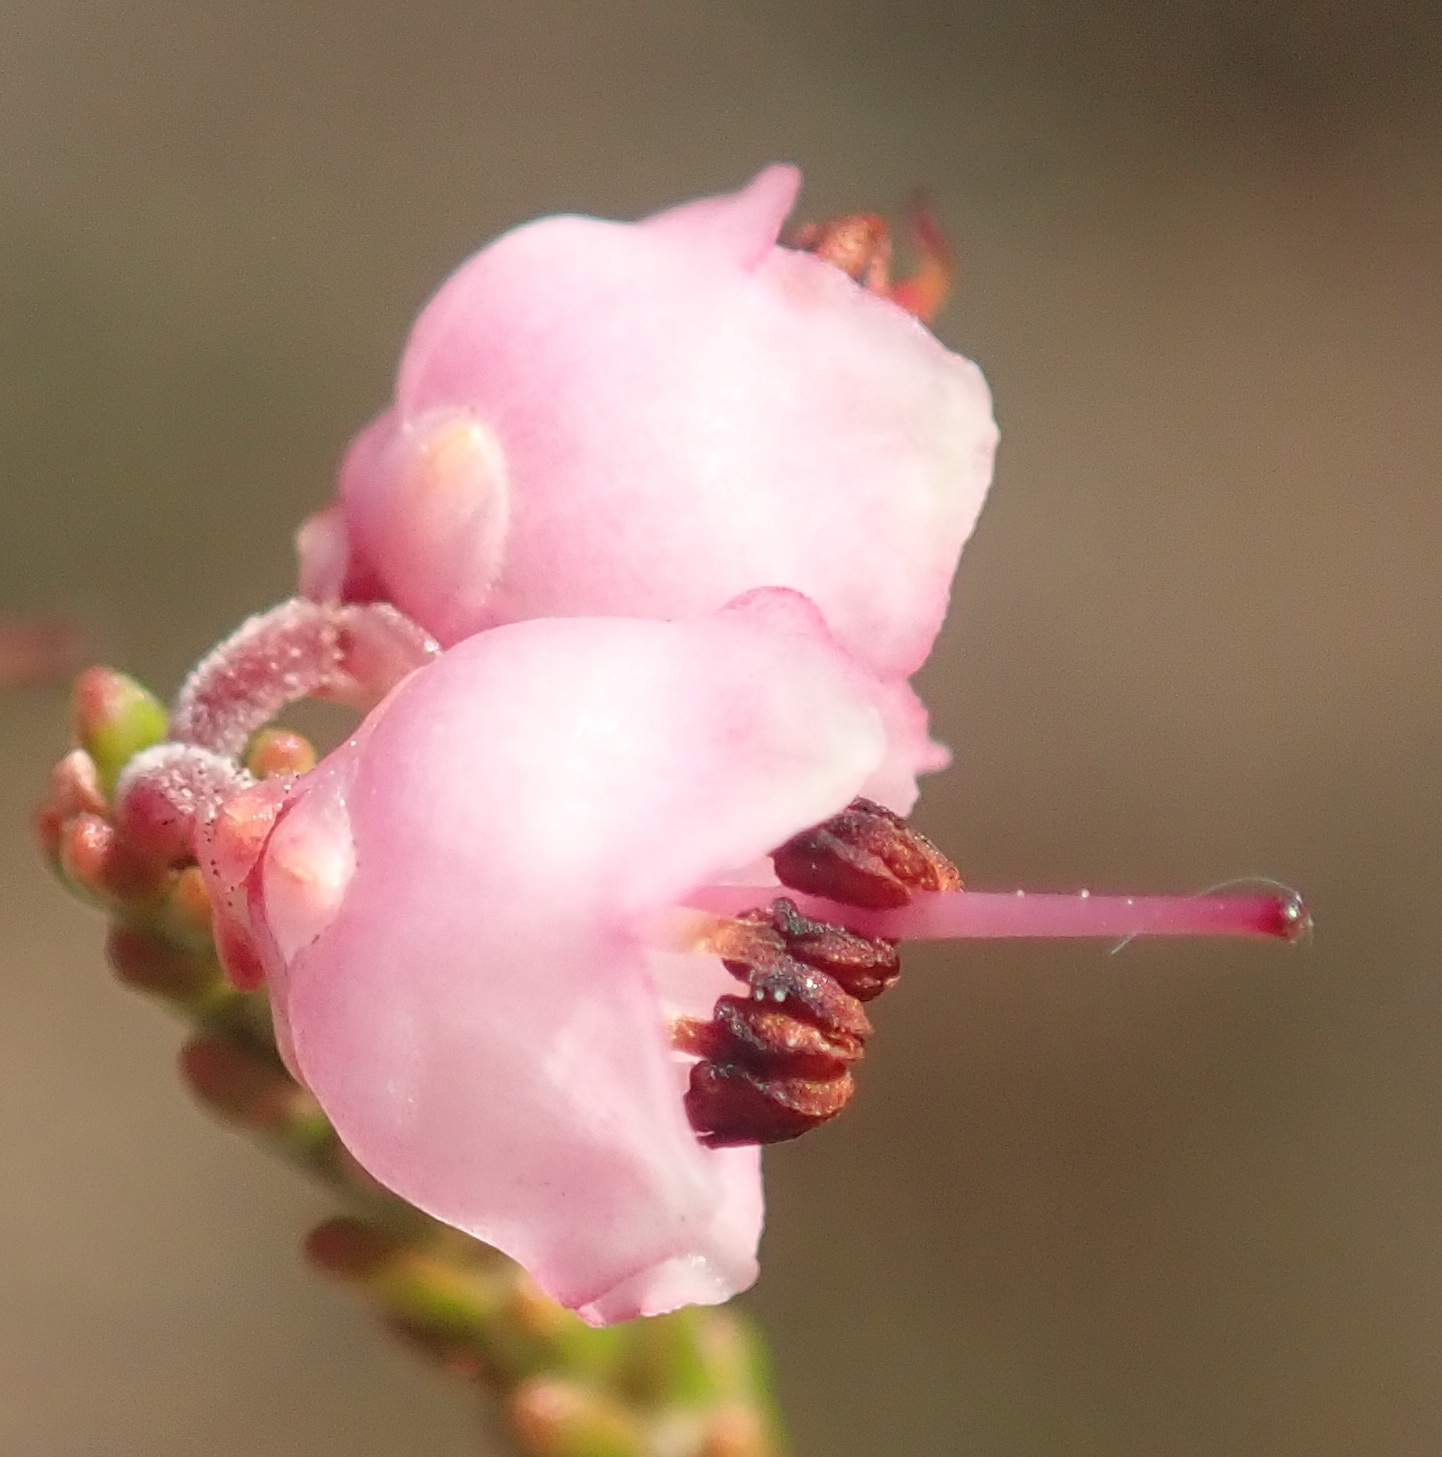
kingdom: Plantae
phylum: Tracheophyta
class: Magnoliopsida
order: Ericales
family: Ericaceae
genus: Erica
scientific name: Erica umbelliflora
